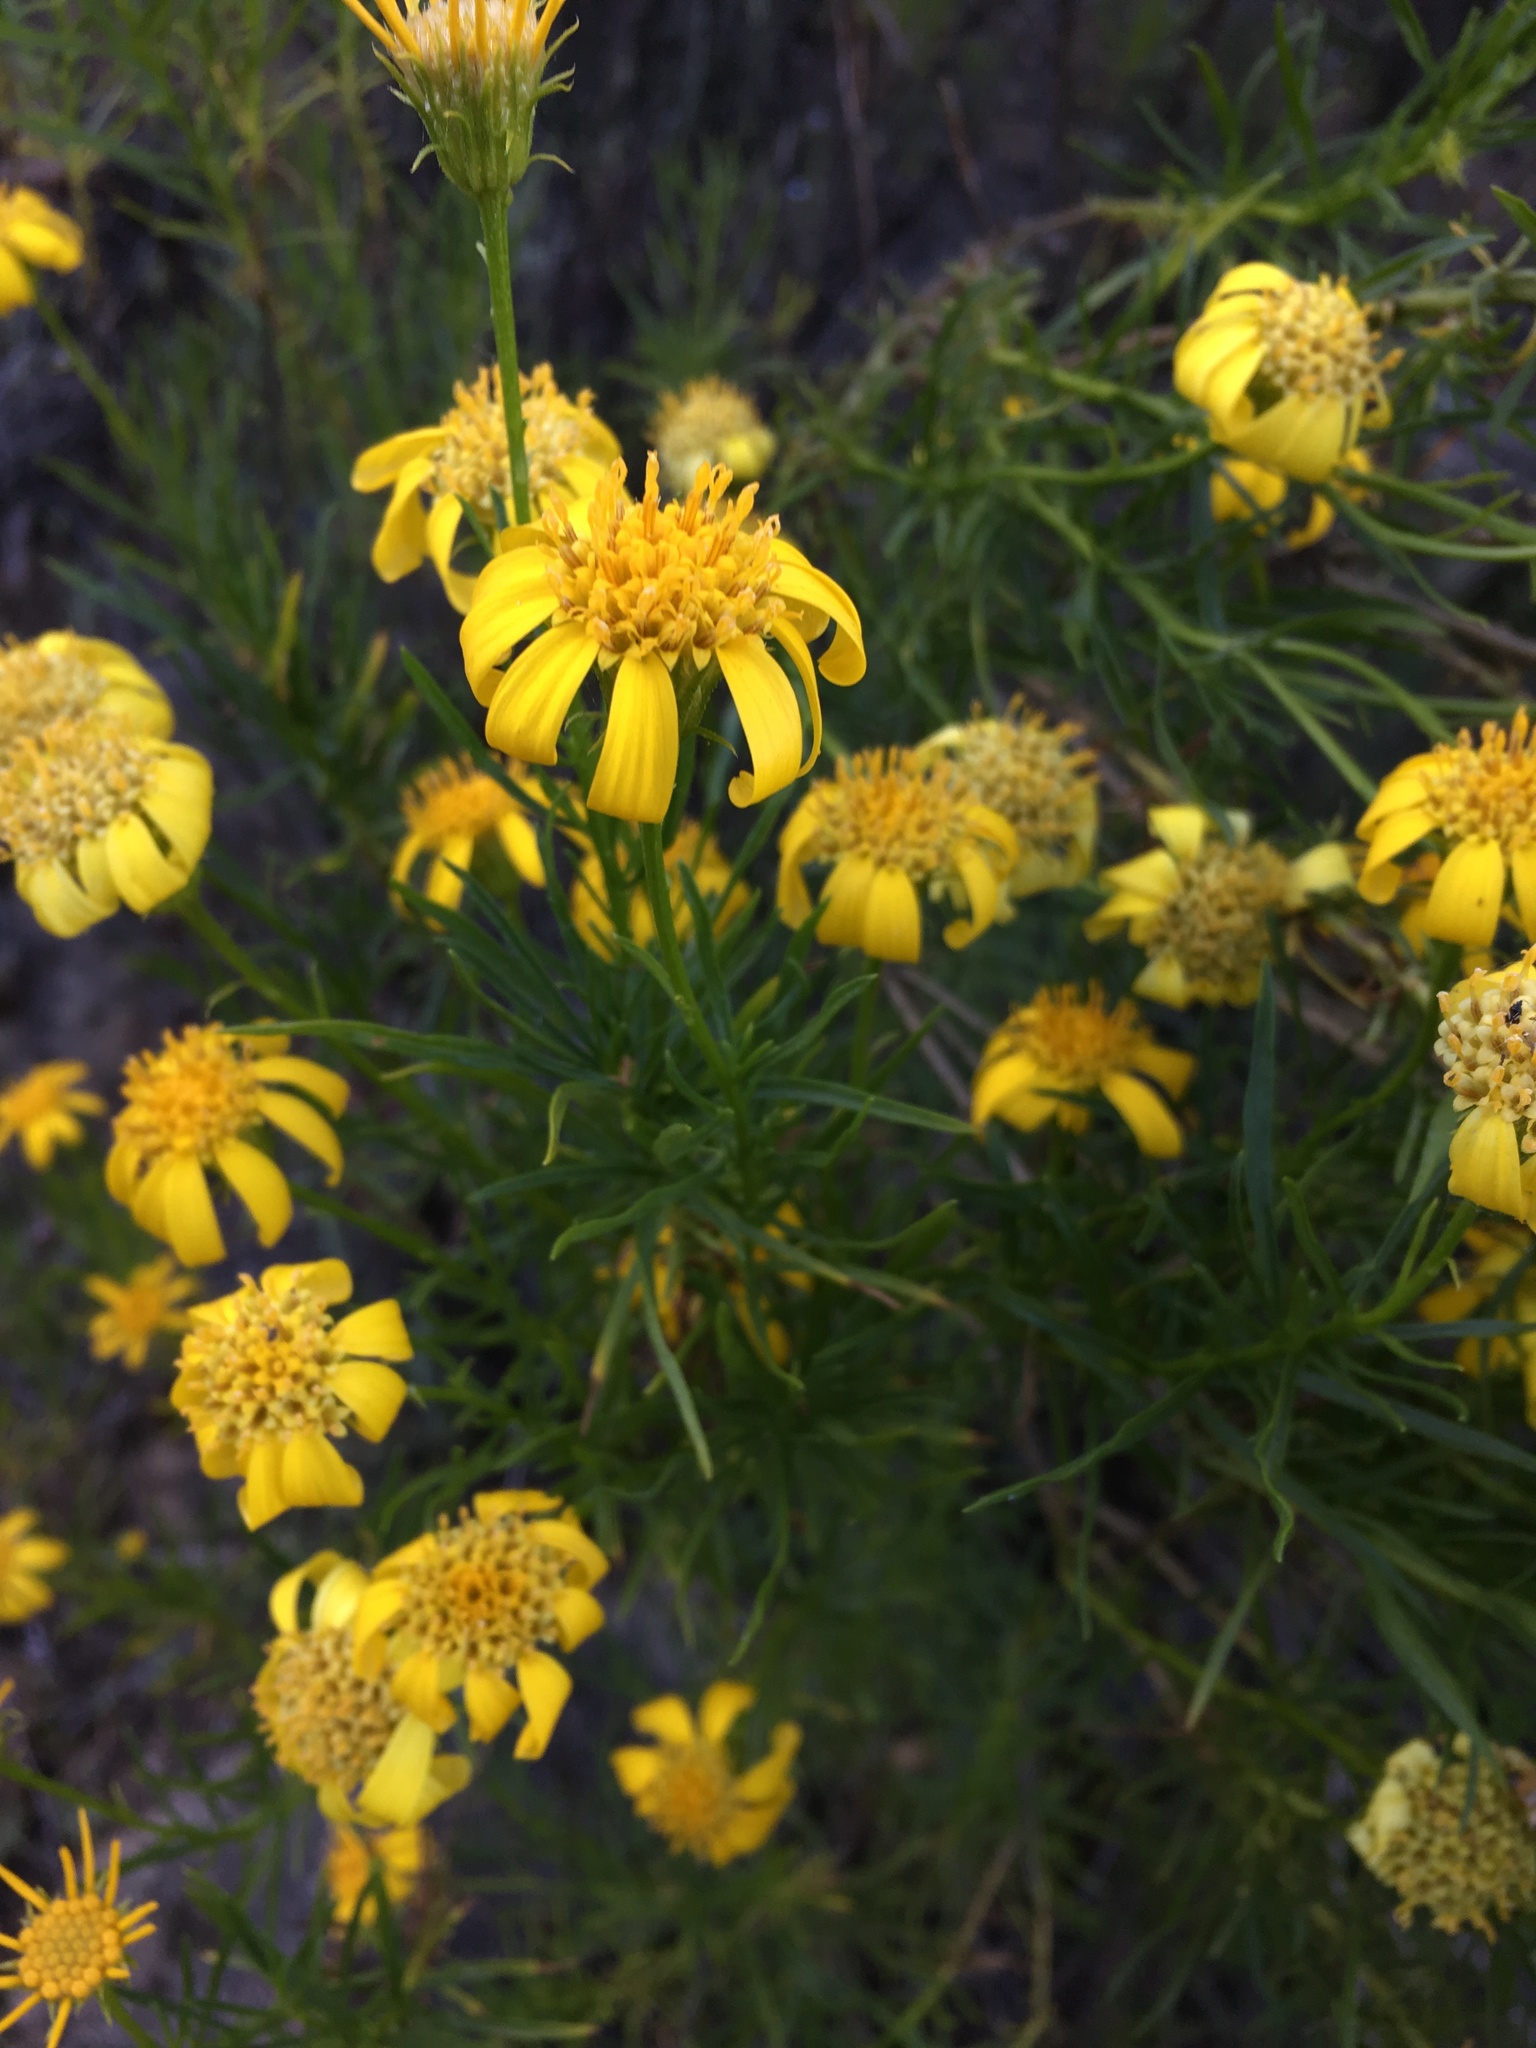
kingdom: Plantae
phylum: Tracheophyta
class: Magnoliopsida
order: Asterales
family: Asteraceae
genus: Ericameria
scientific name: Ericameria linearifolia
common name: Interior goldenbush
